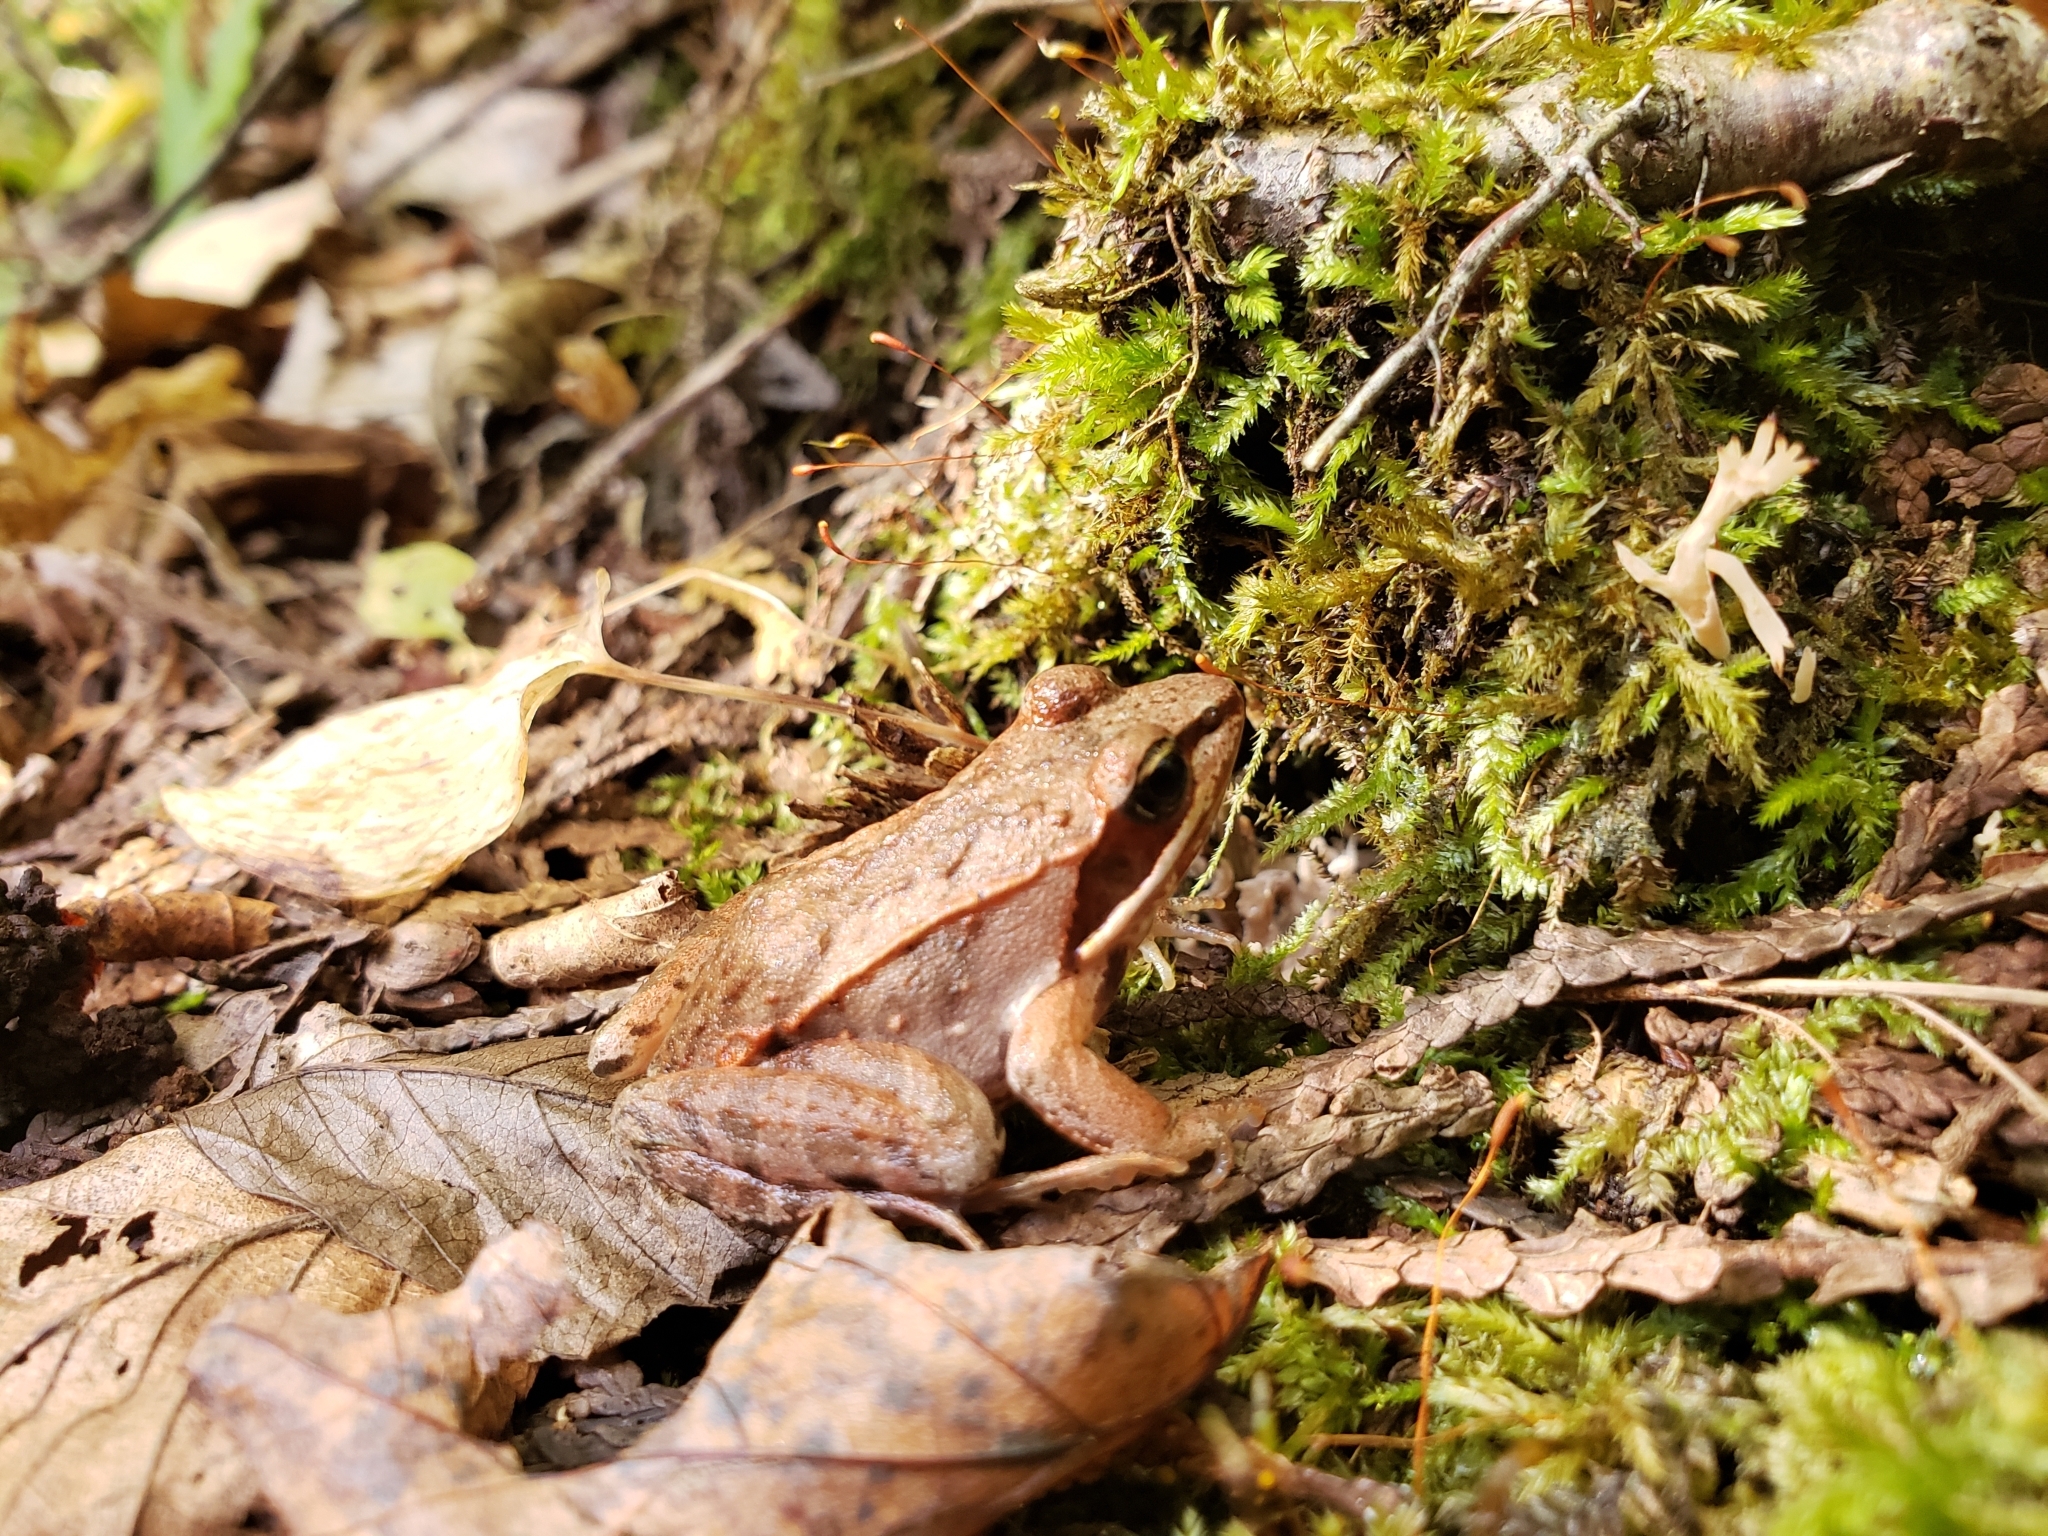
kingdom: Animalia
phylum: Chordata
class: Amphibia
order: Anura
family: Ranidae
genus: Lithobates
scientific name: Lithobates sylvaticus
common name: Wood frog
